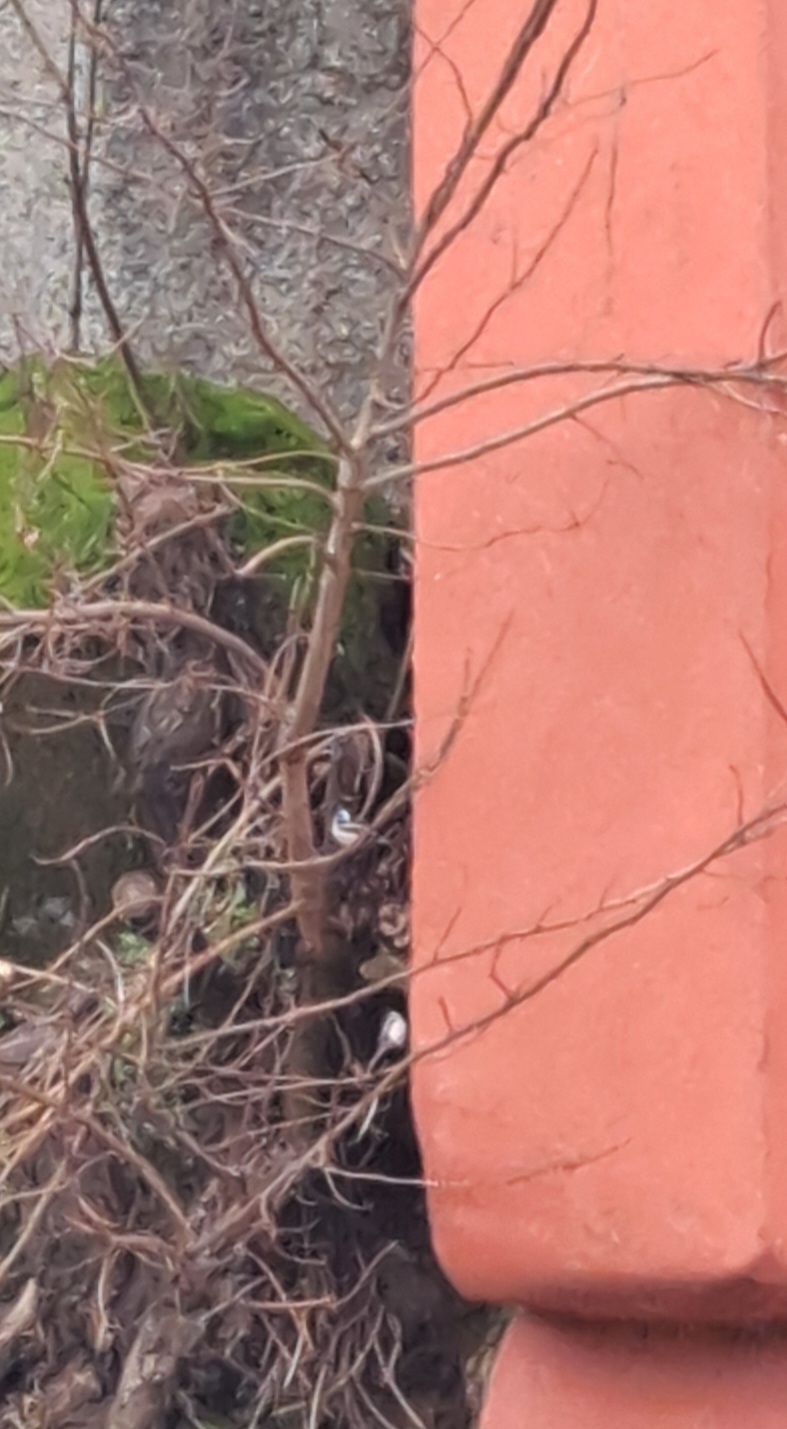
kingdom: Animalia
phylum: Chordata
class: Aves
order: Passeriformes
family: Aegithalidae
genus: Aegithalos
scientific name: Aegithalos caudatus
